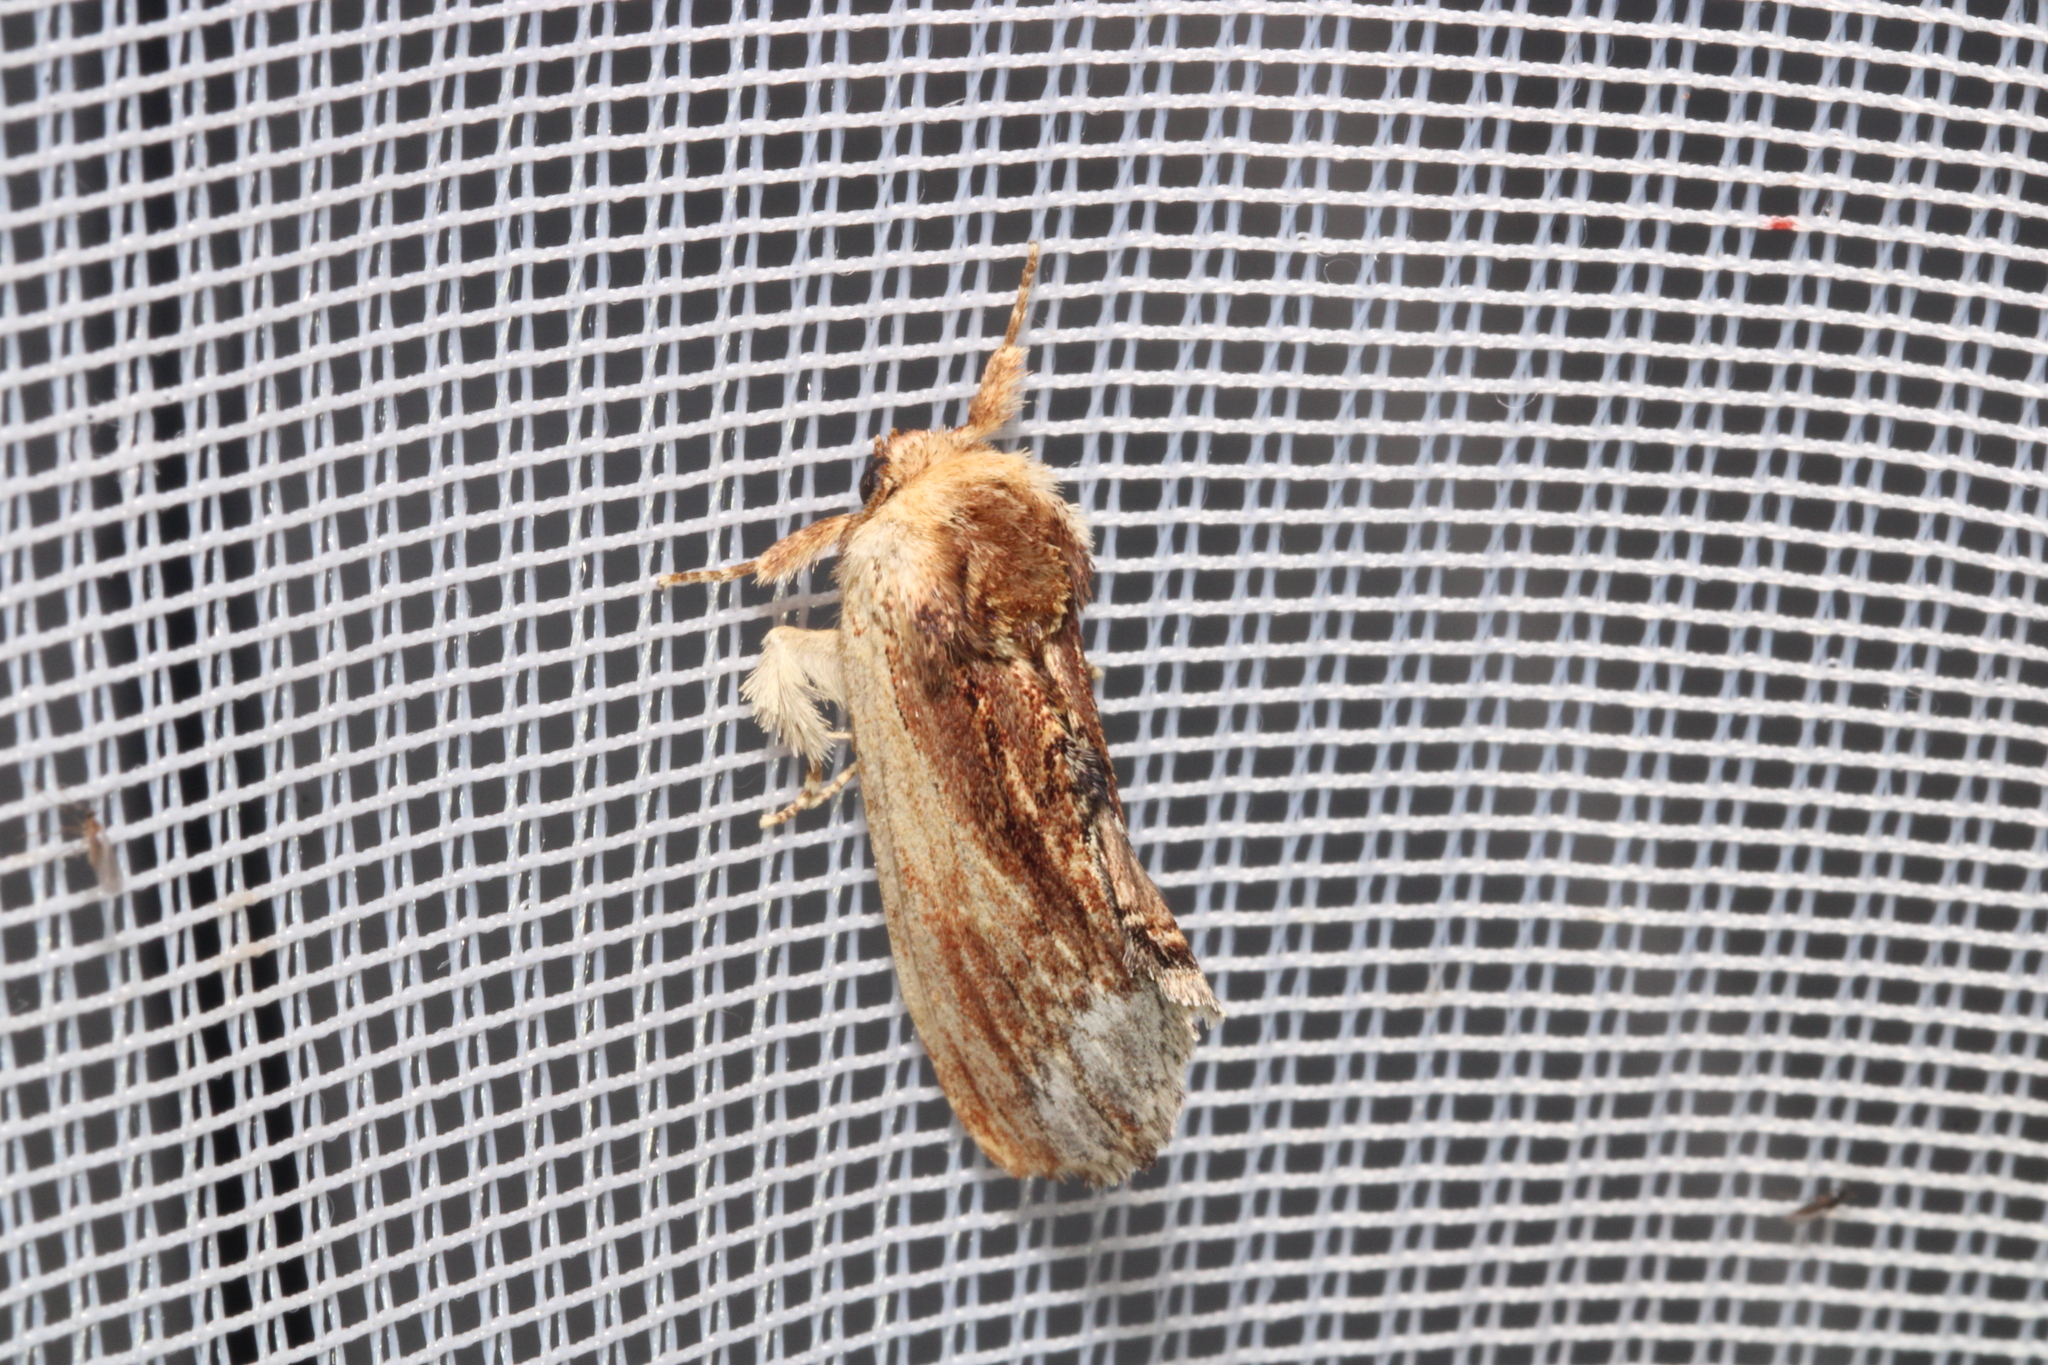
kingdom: Animalia
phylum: Arthropoda
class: Insecta
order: Lepidoptera
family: Notodontidae
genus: Ptilodon
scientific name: Ptilodon cucullina
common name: Maple prominent
